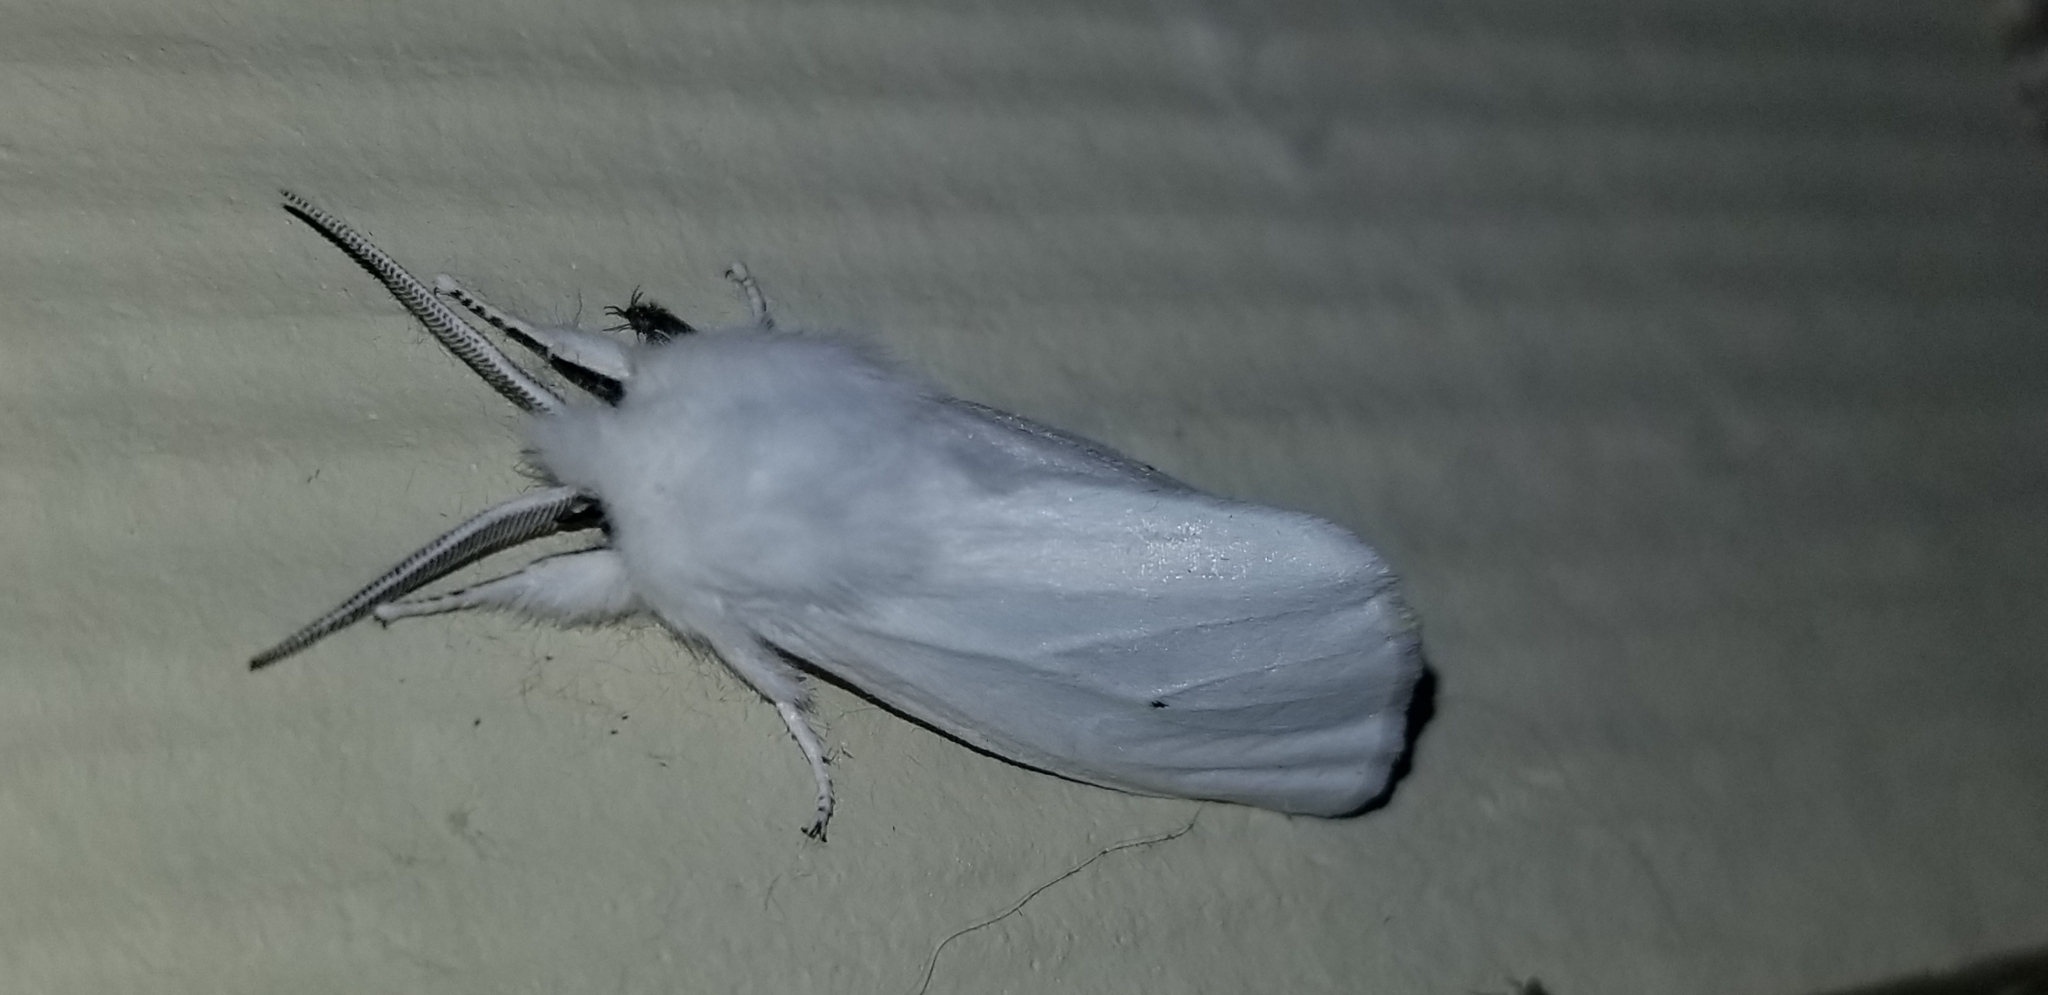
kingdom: Animalia
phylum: Arthropoda
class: Insecta
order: Lepidoptera
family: Erebidae
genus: Spilosoma
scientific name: Spilosoma virginica
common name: Virginia tiger moth
